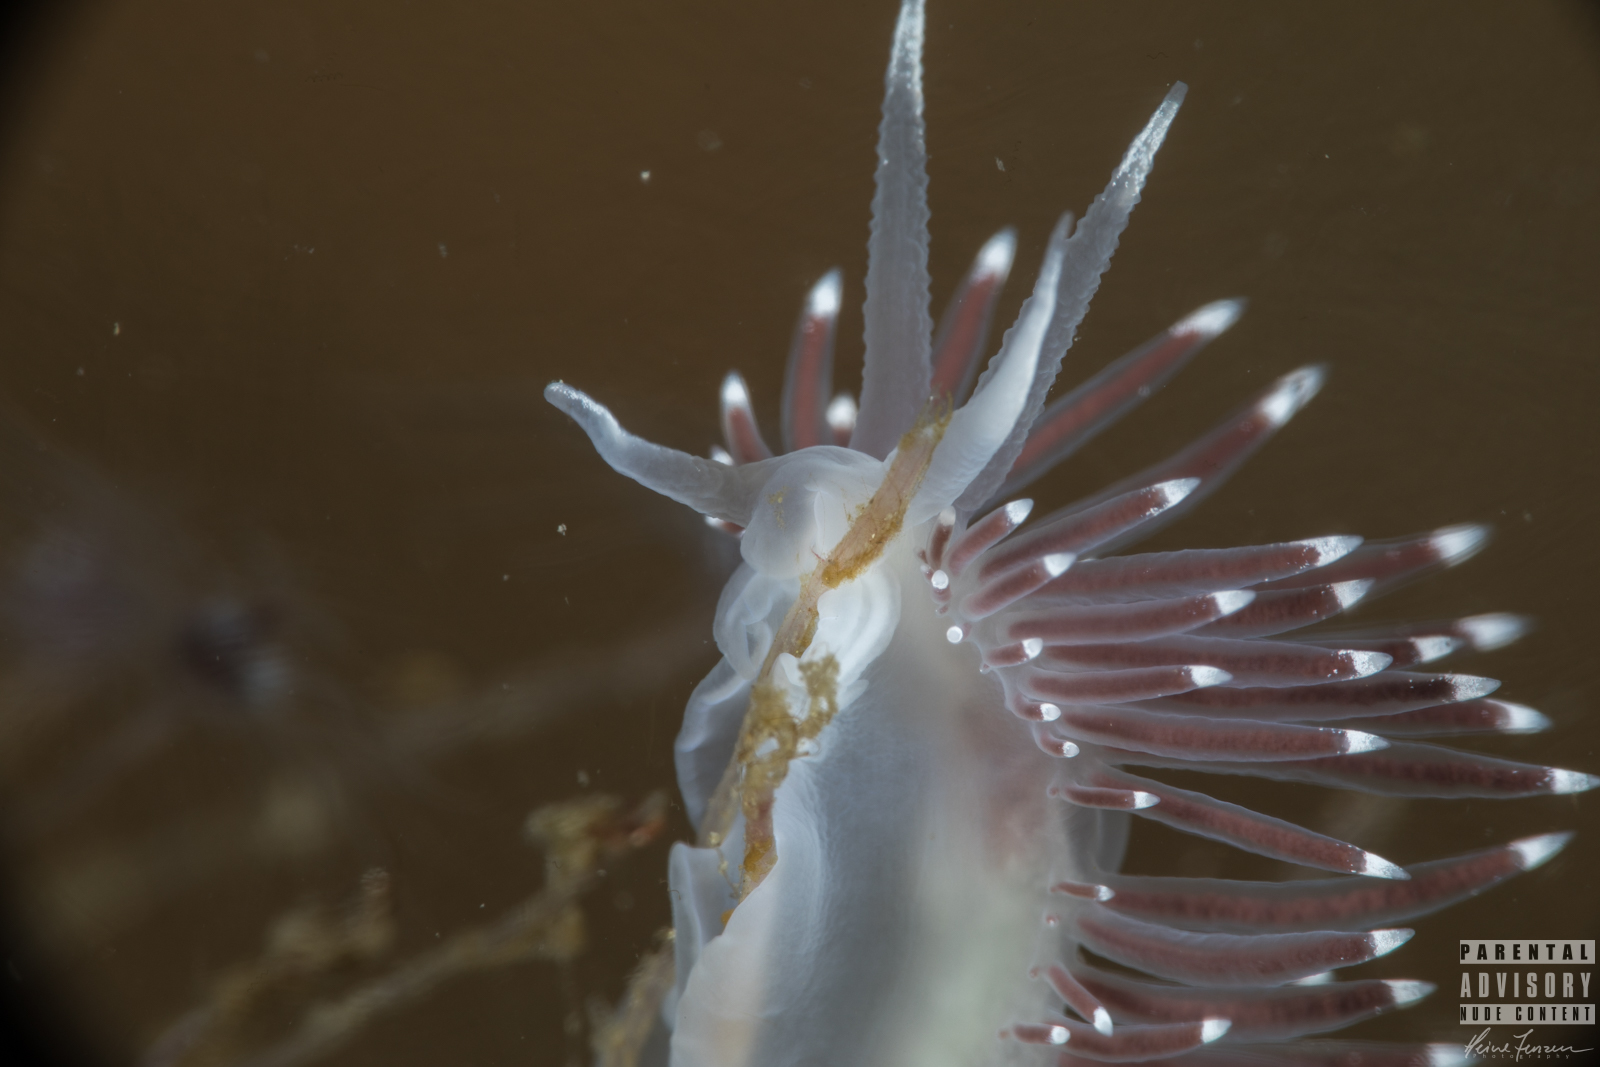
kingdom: Animalia
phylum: Mollusca
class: Gastropoda
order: Nudibranchia
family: Coryphellidae
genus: Coryphella
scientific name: Coryphella browni
